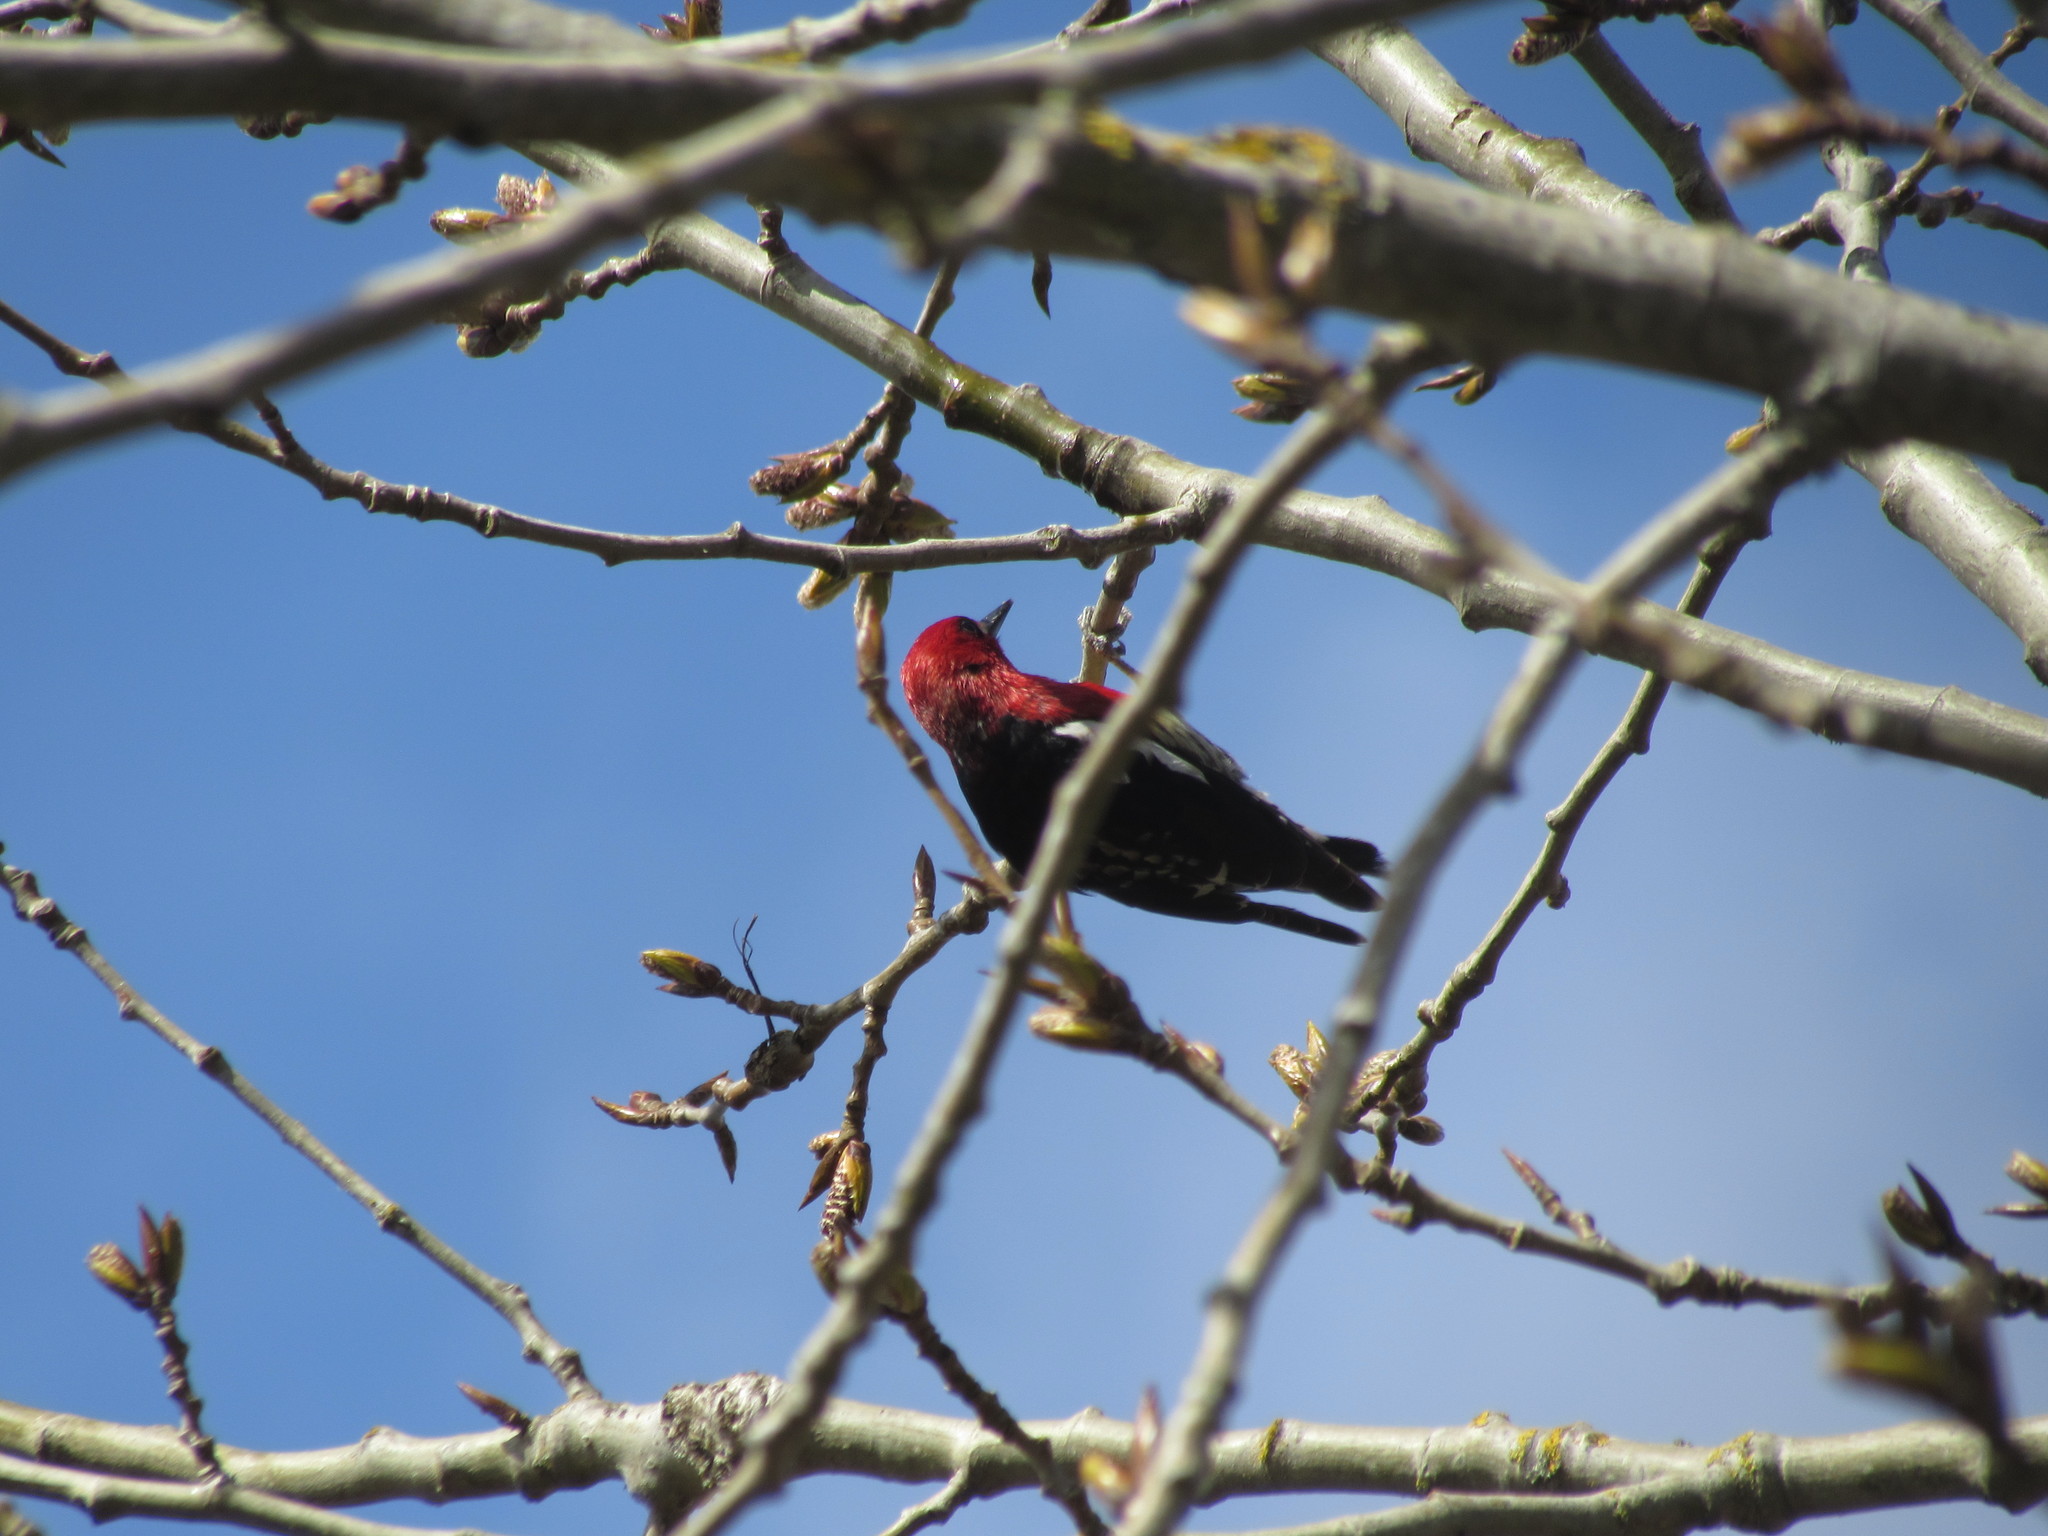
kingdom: Animalia
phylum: Chordata
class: Aves
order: Piciformes
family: Picidae
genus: Sphyrapicus
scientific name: Sphyrapicus ruber
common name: Red-breasted sapsucker
